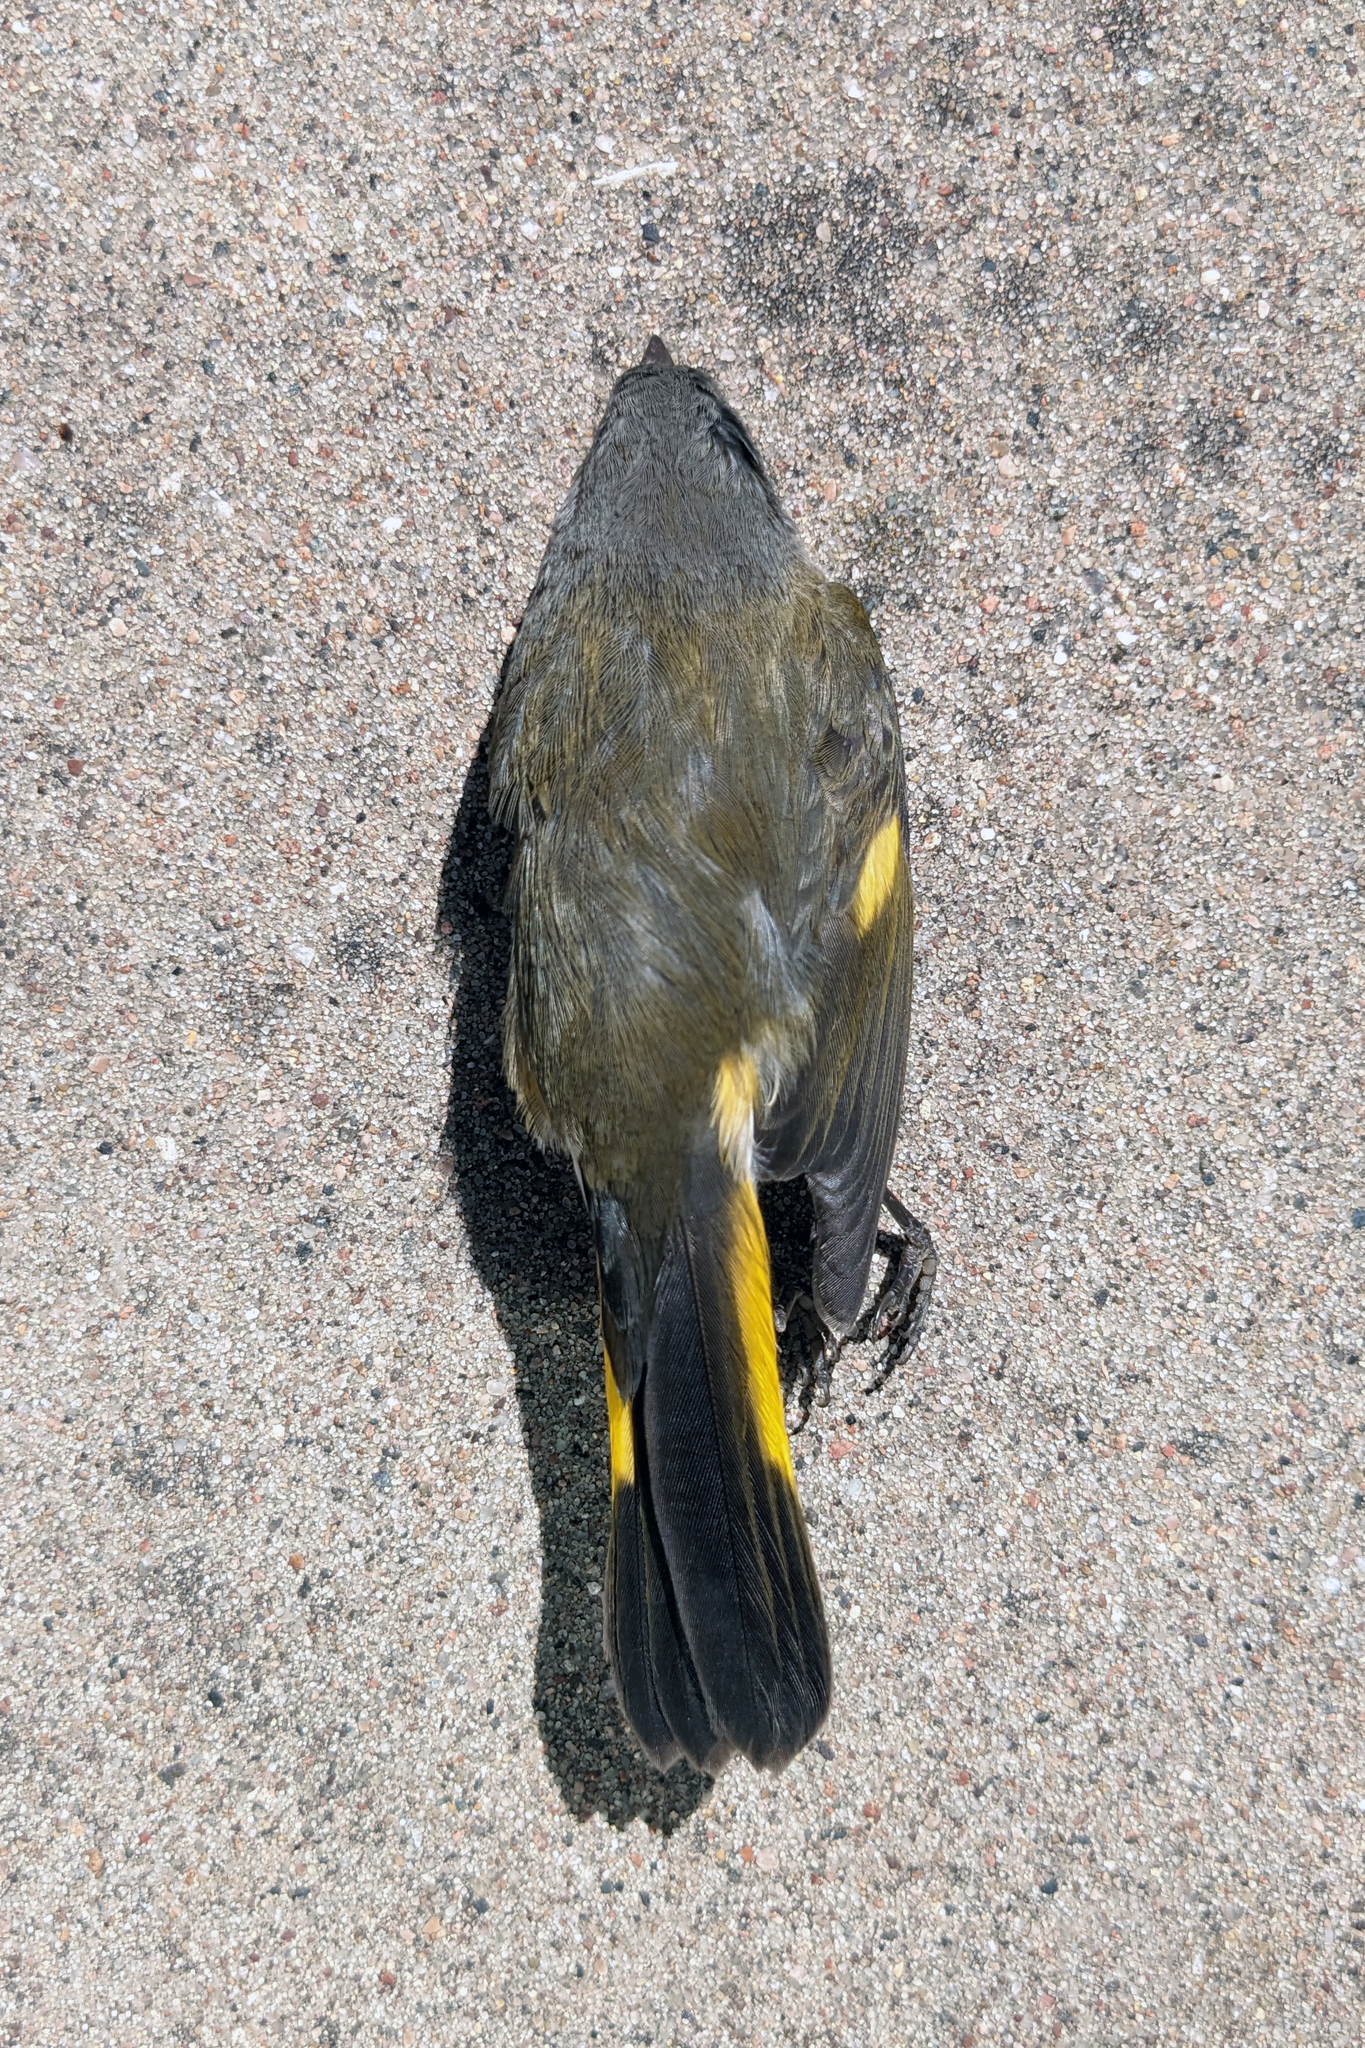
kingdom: Animalia
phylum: Chordata
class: Aves
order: Passeriformes
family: Parulidae
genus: Setophaga
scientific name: Setophaga ruticilla
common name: American redstart
